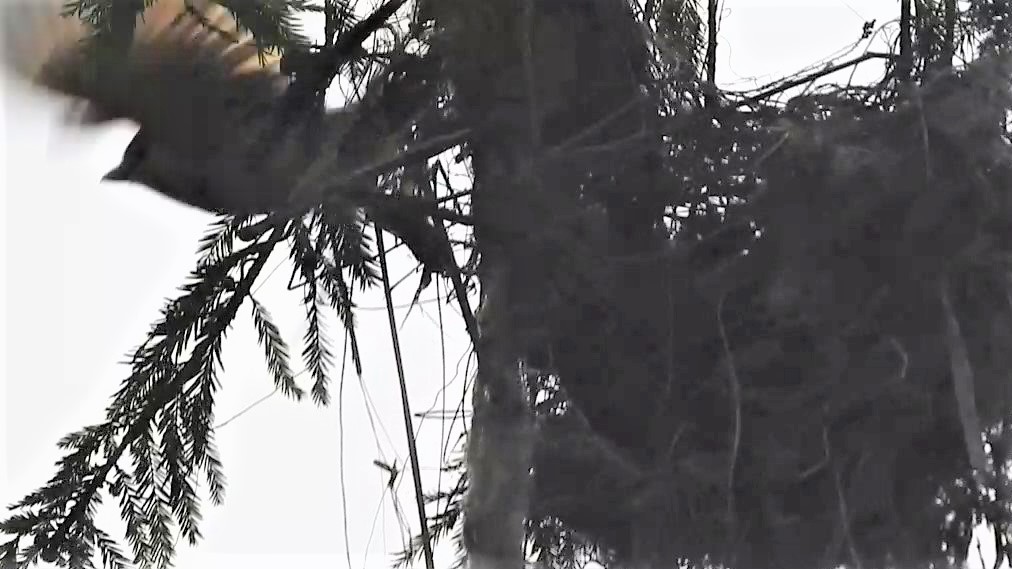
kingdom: Animalia
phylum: Chordata
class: Aves
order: Passeriformes
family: Cotingidae
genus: Pachyramphus
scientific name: Pachyramphus aglaiae
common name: Rose-throated becard
